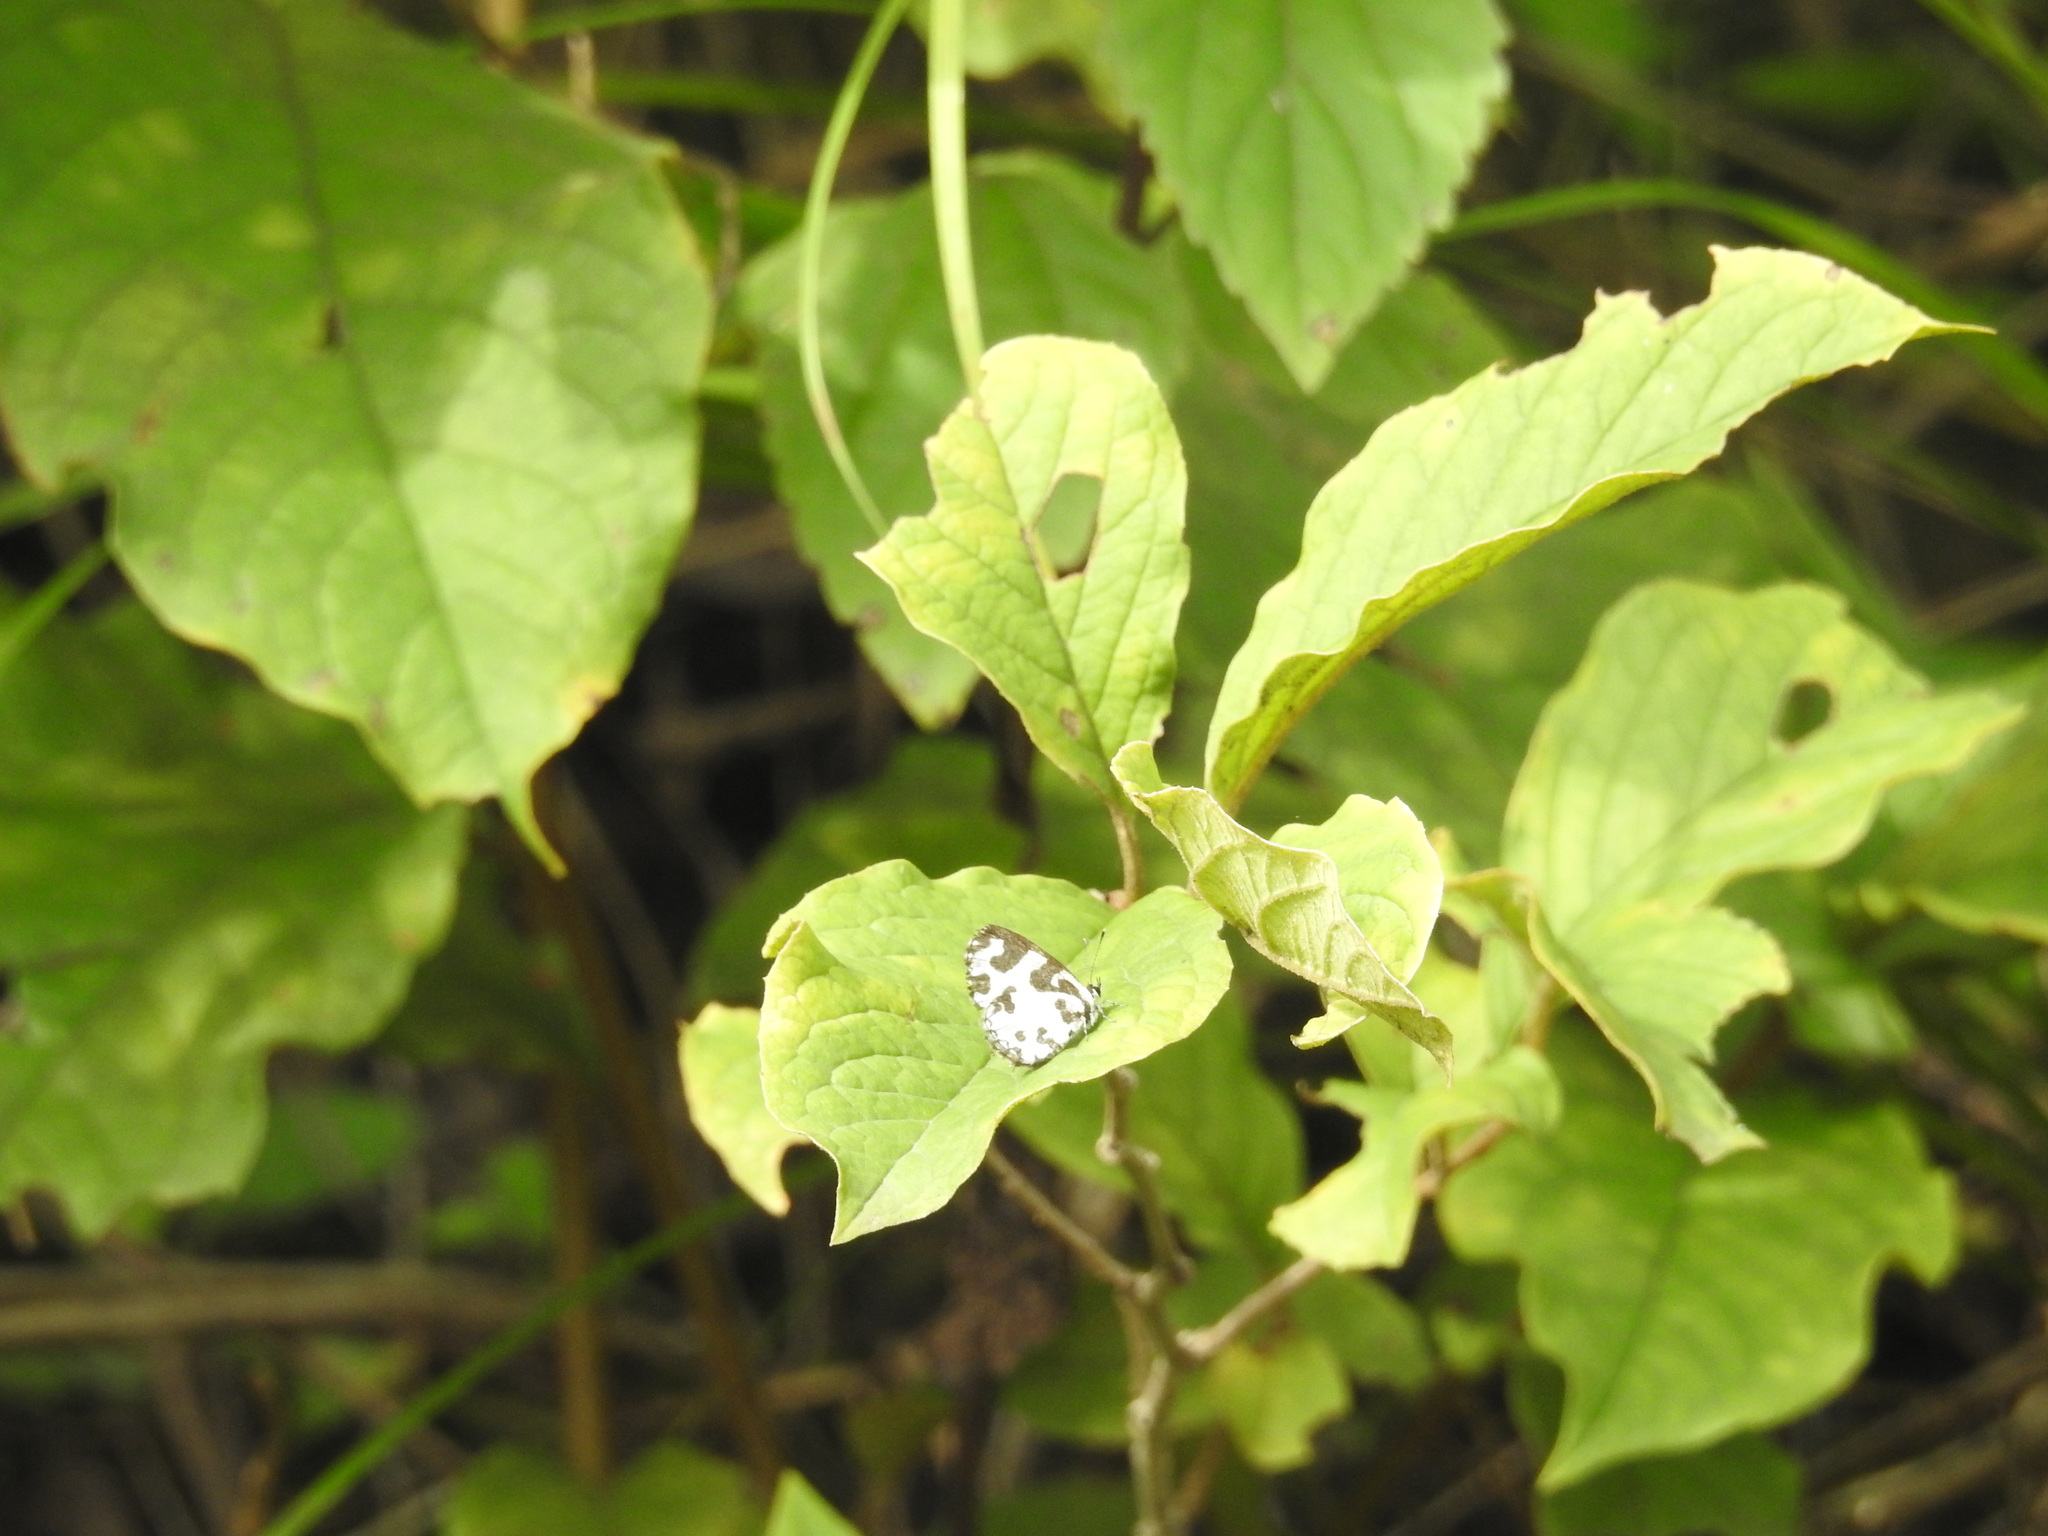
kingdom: Animalia
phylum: Arthropoda
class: Insecta
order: Lepidoptera
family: Lycaenidae
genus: Caleta
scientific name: Caleta decidia
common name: Angled pierrot
